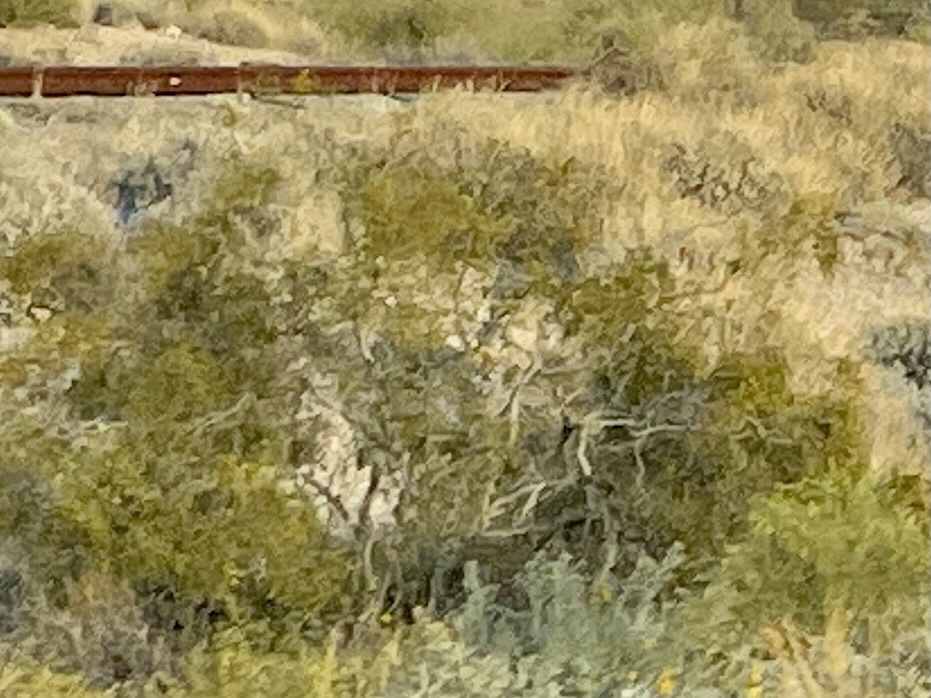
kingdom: Plantae
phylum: Tracheophyta
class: Magnoliopsida
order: Zygophyllales
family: Zygophyllaceae
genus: Larrea
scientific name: Larrea tridentata
